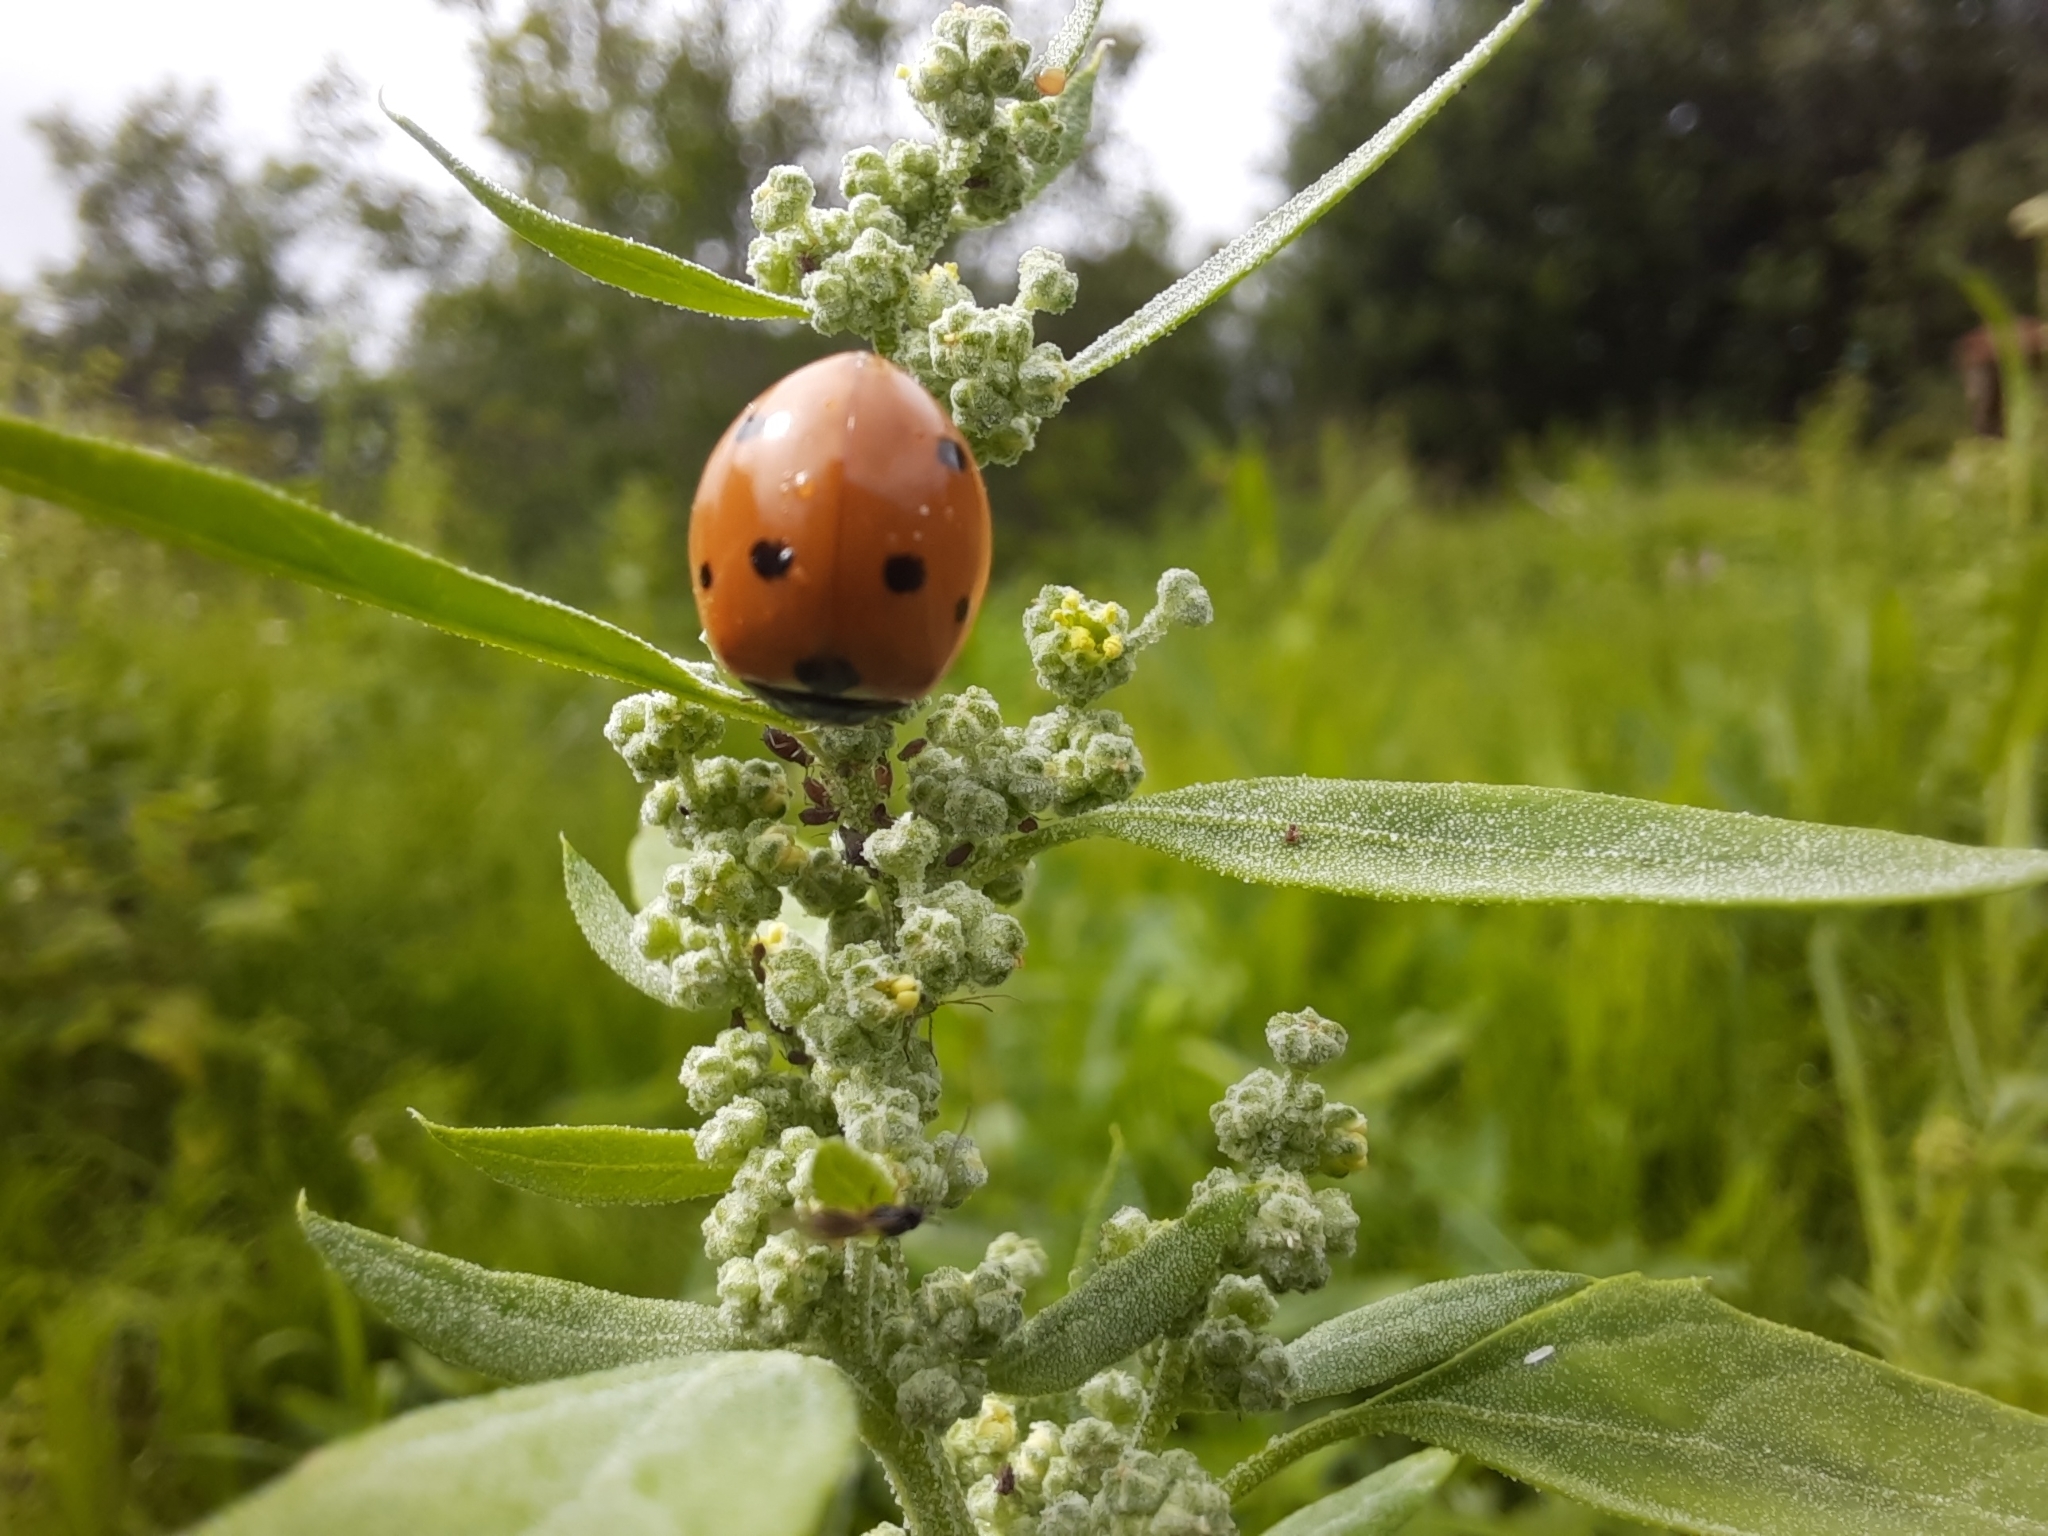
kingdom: Animalia
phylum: Arthropoda
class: Insecta
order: Coleoptera
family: Coccinellidae
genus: Coccinella
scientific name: Coccinella septempunctata
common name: Sevenspotted lady beetle
